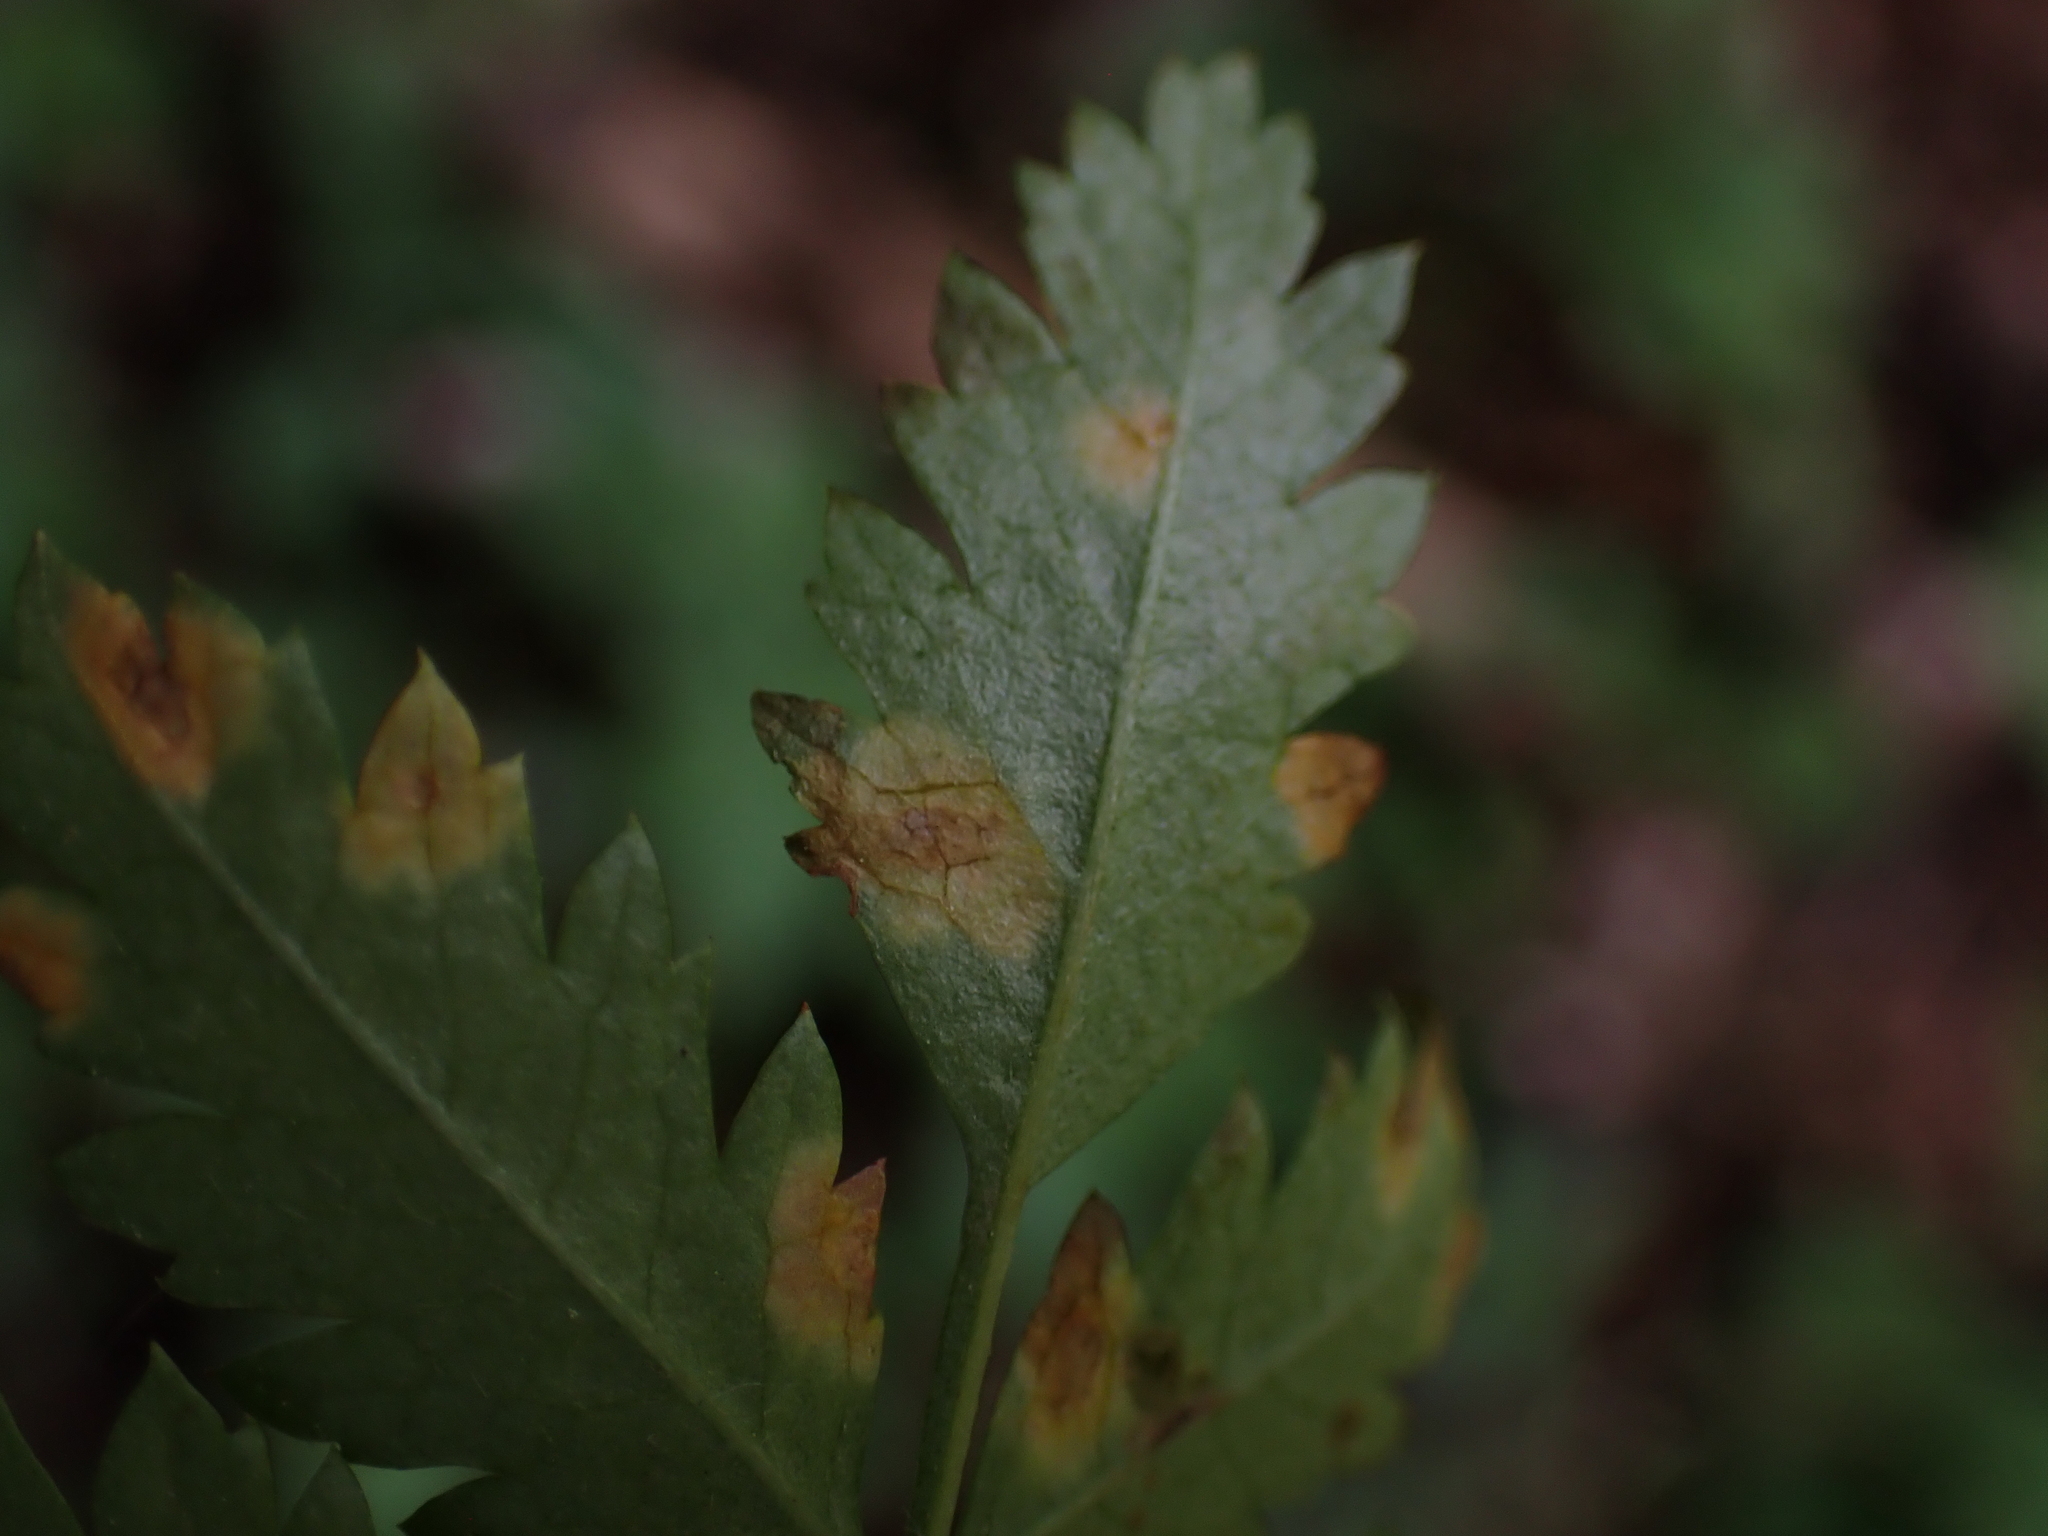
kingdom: Fungi
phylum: Basidiomycota
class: Pucciniomycetes
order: Pucciniales
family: Gymnosporangiaceae
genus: Gymnosporangium
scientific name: Gymnosporangium cornutum
